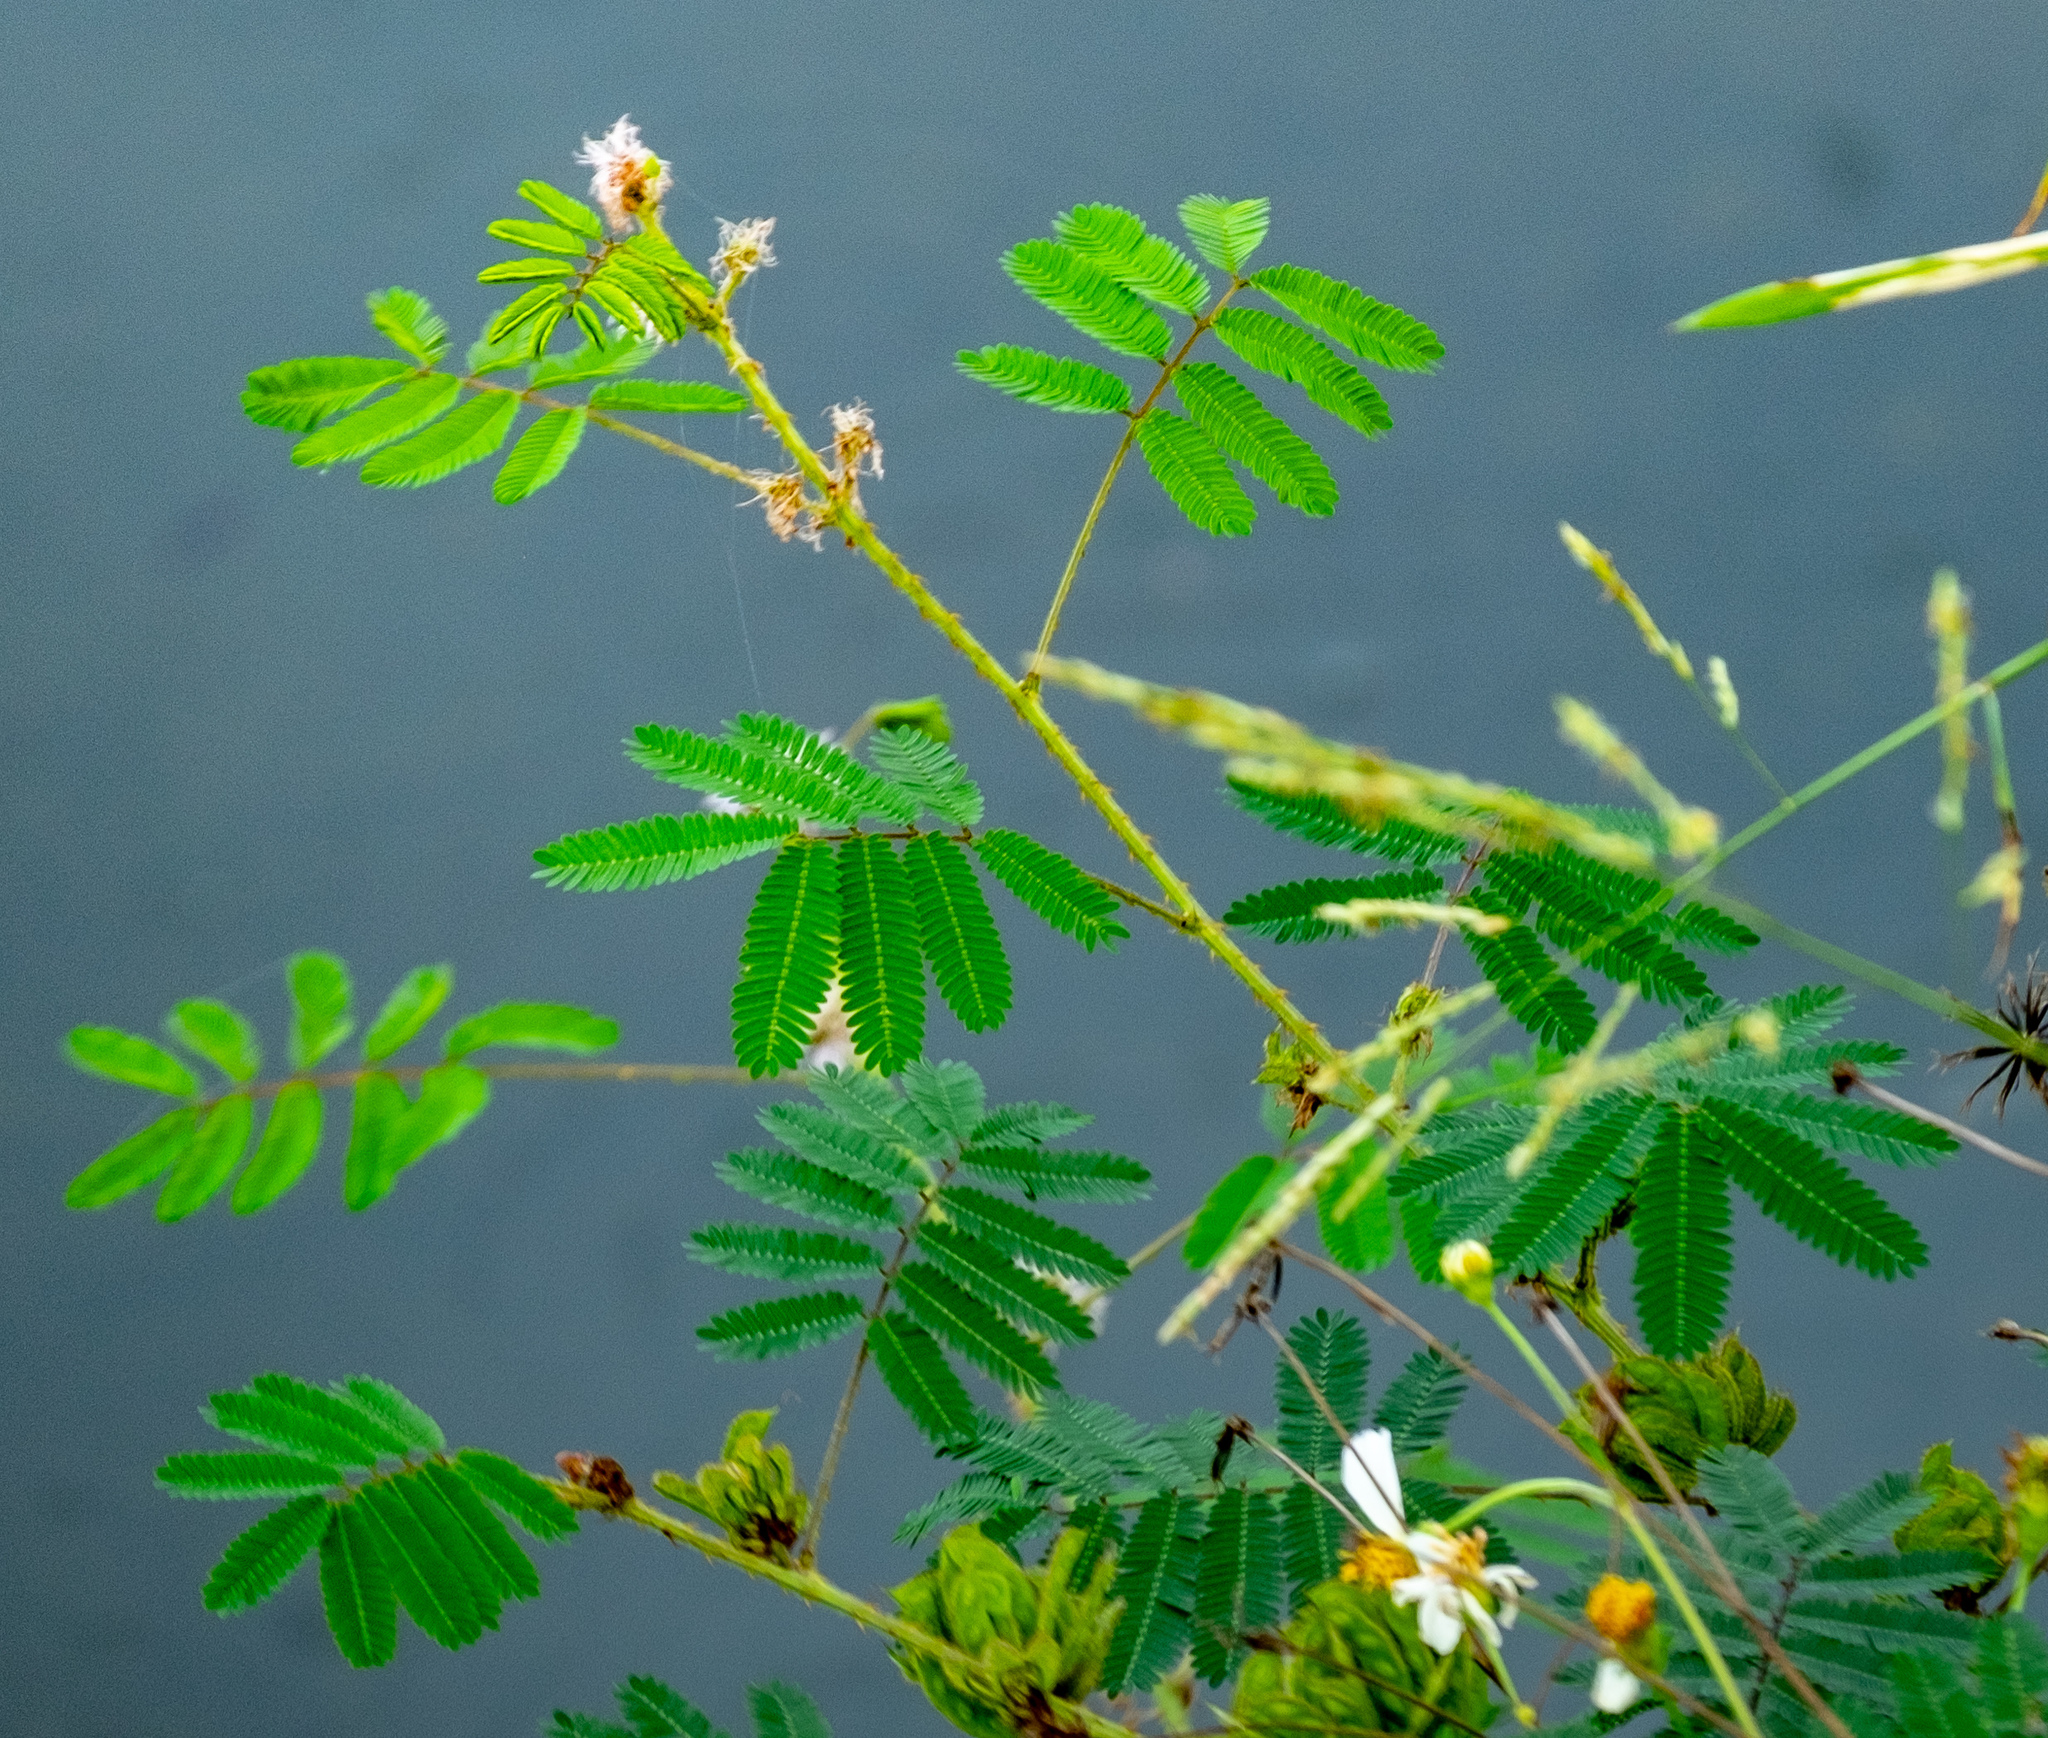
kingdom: Plantae
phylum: Tracheophyta
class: Magnoliopsida
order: Fabales
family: Fabaceae
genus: Mimosa
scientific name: Mimosa diplotricha
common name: Giant sensitive-plant
